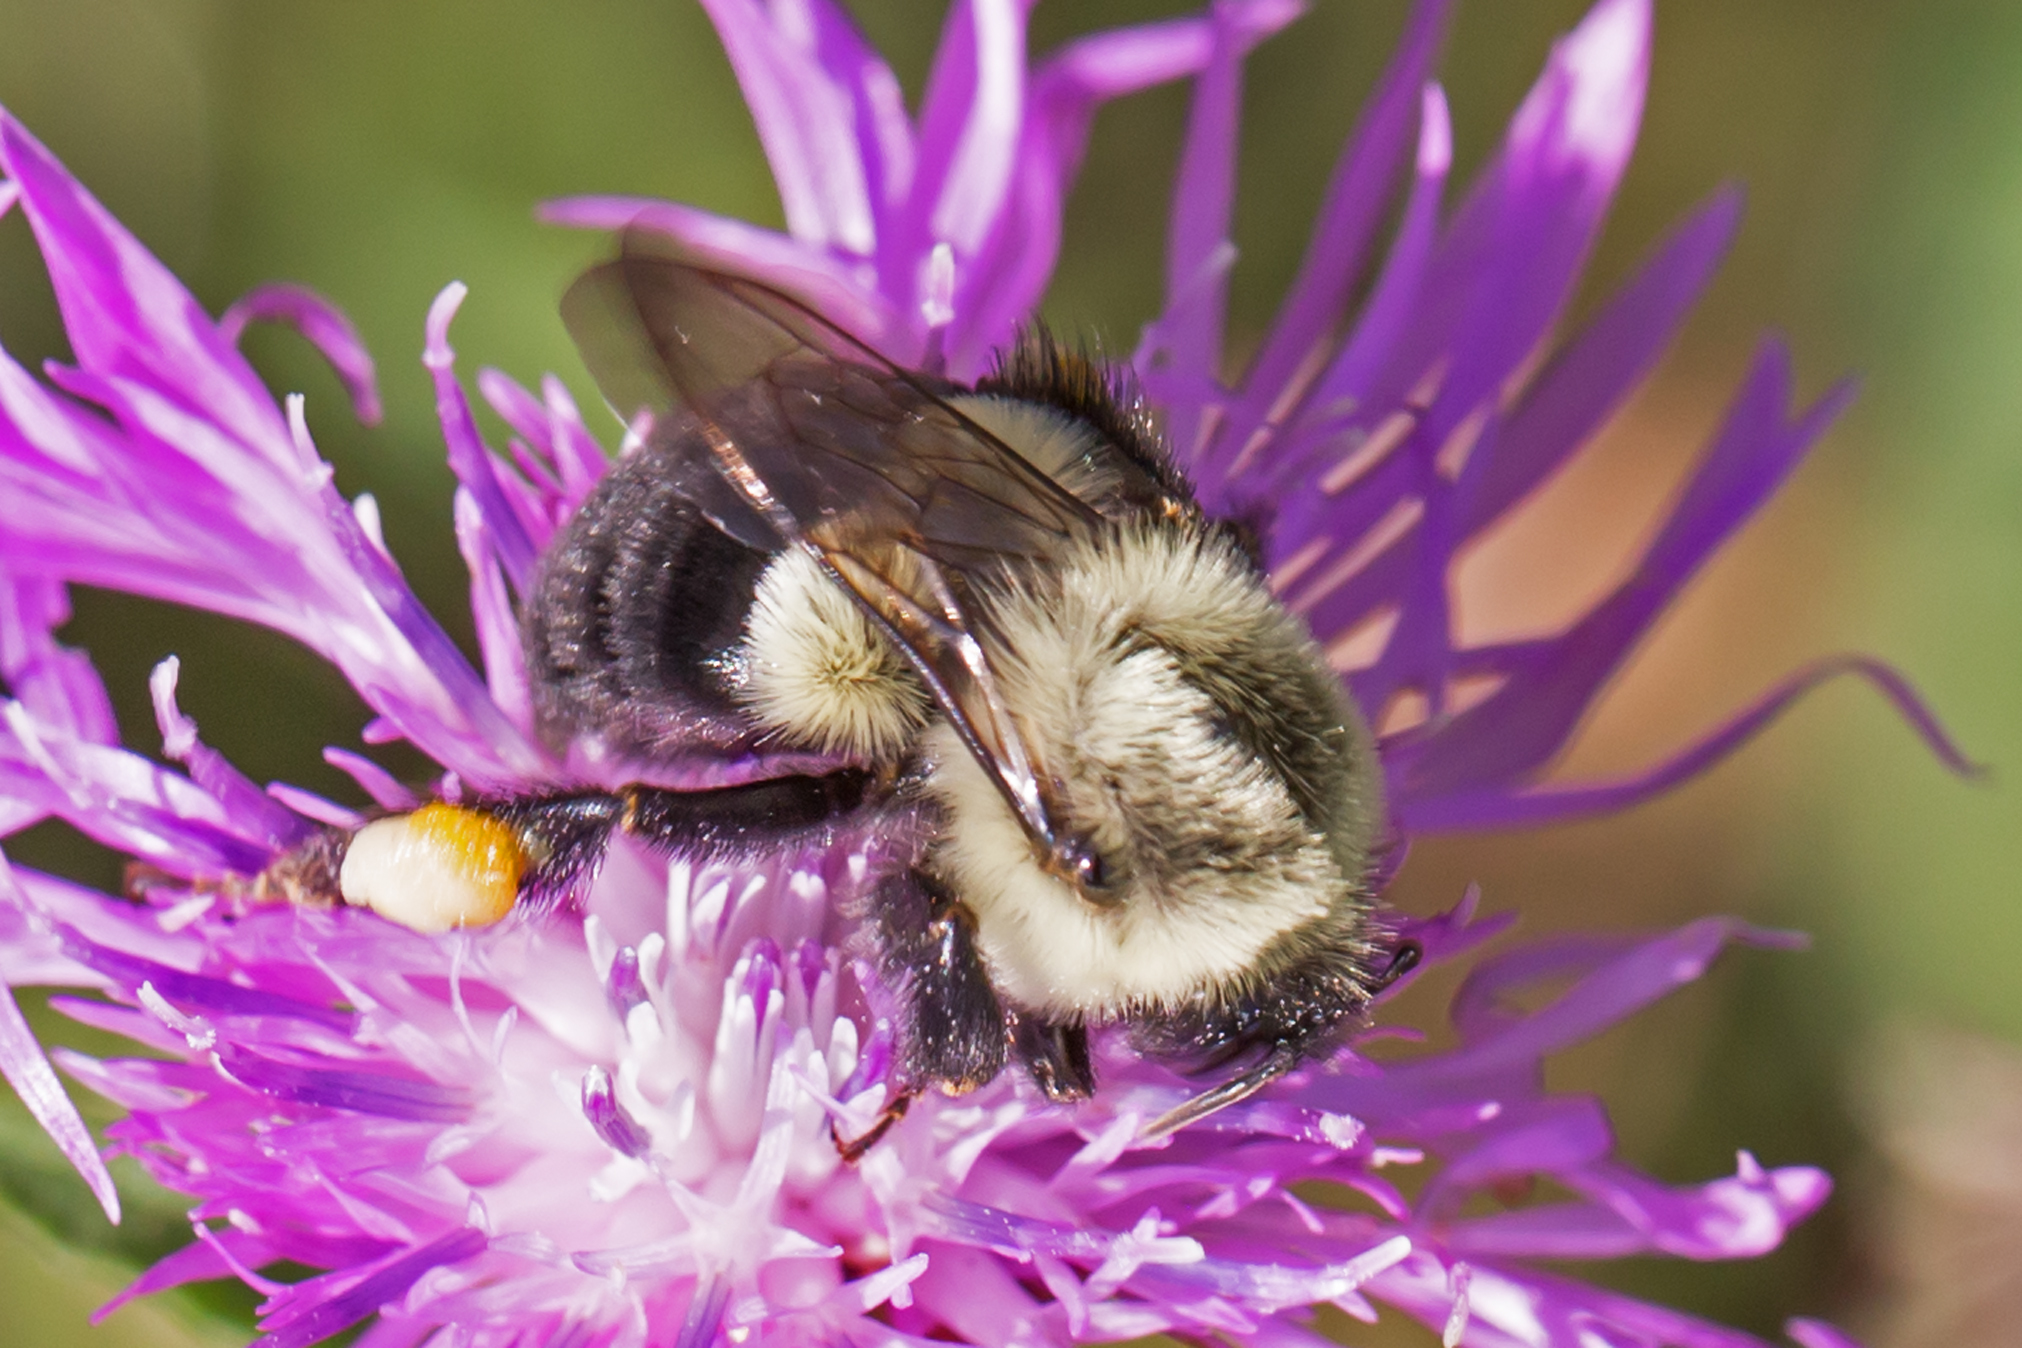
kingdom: Animalia
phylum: Arthropoda
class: Insecta
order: Hymenoptera
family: Apidae
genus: Bombus
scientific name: Bombus impatiens
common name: Common eastern bumble bee
